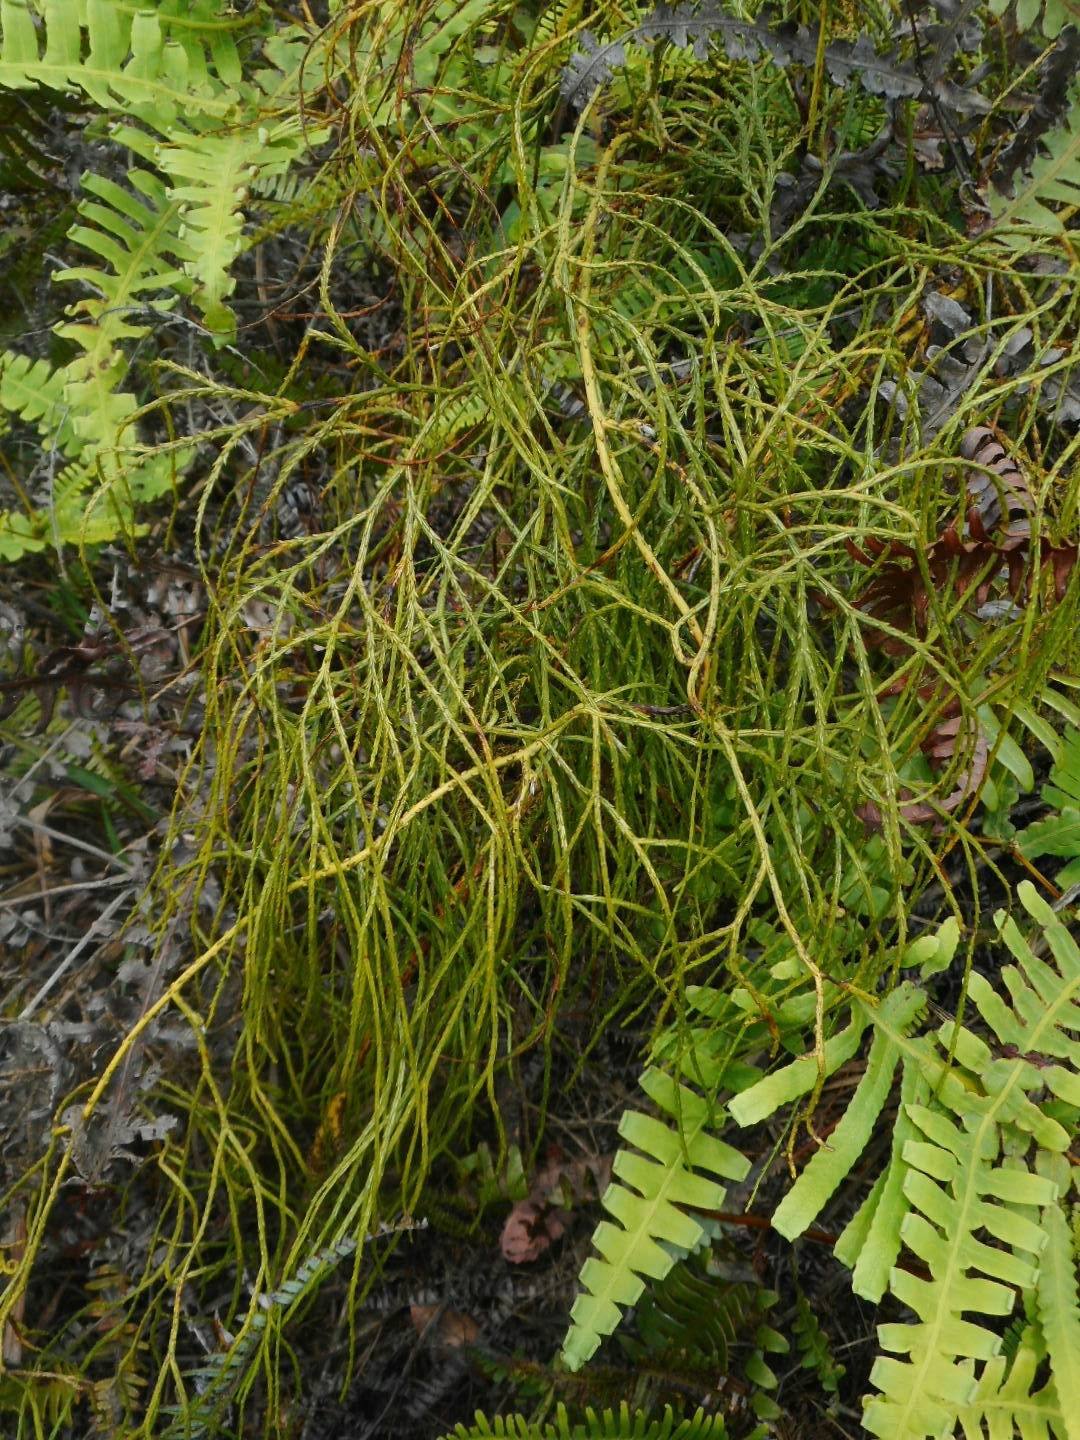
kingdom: Plantae
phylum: Tracheophyta
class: Lycopodiopsida
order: Lycopodiales
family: Lycopodiaceae
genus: Lycopodiastrum
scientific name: Lycopodiastrum casuarinoides
